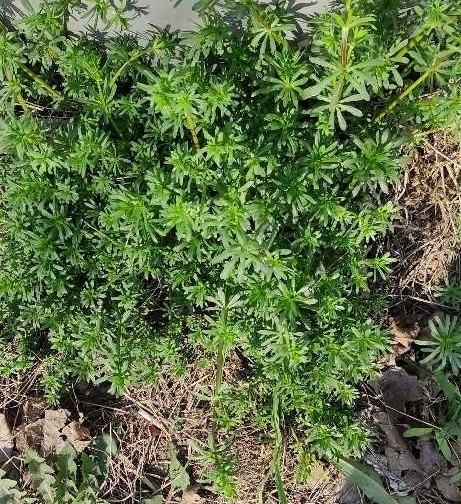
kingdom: Plantae
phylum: Tracheophyta
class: Magnoliopsida
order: Gentianales
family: Rubiaceae
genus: Galium
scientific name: Galium mollugo
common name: Hedge bedstraw
